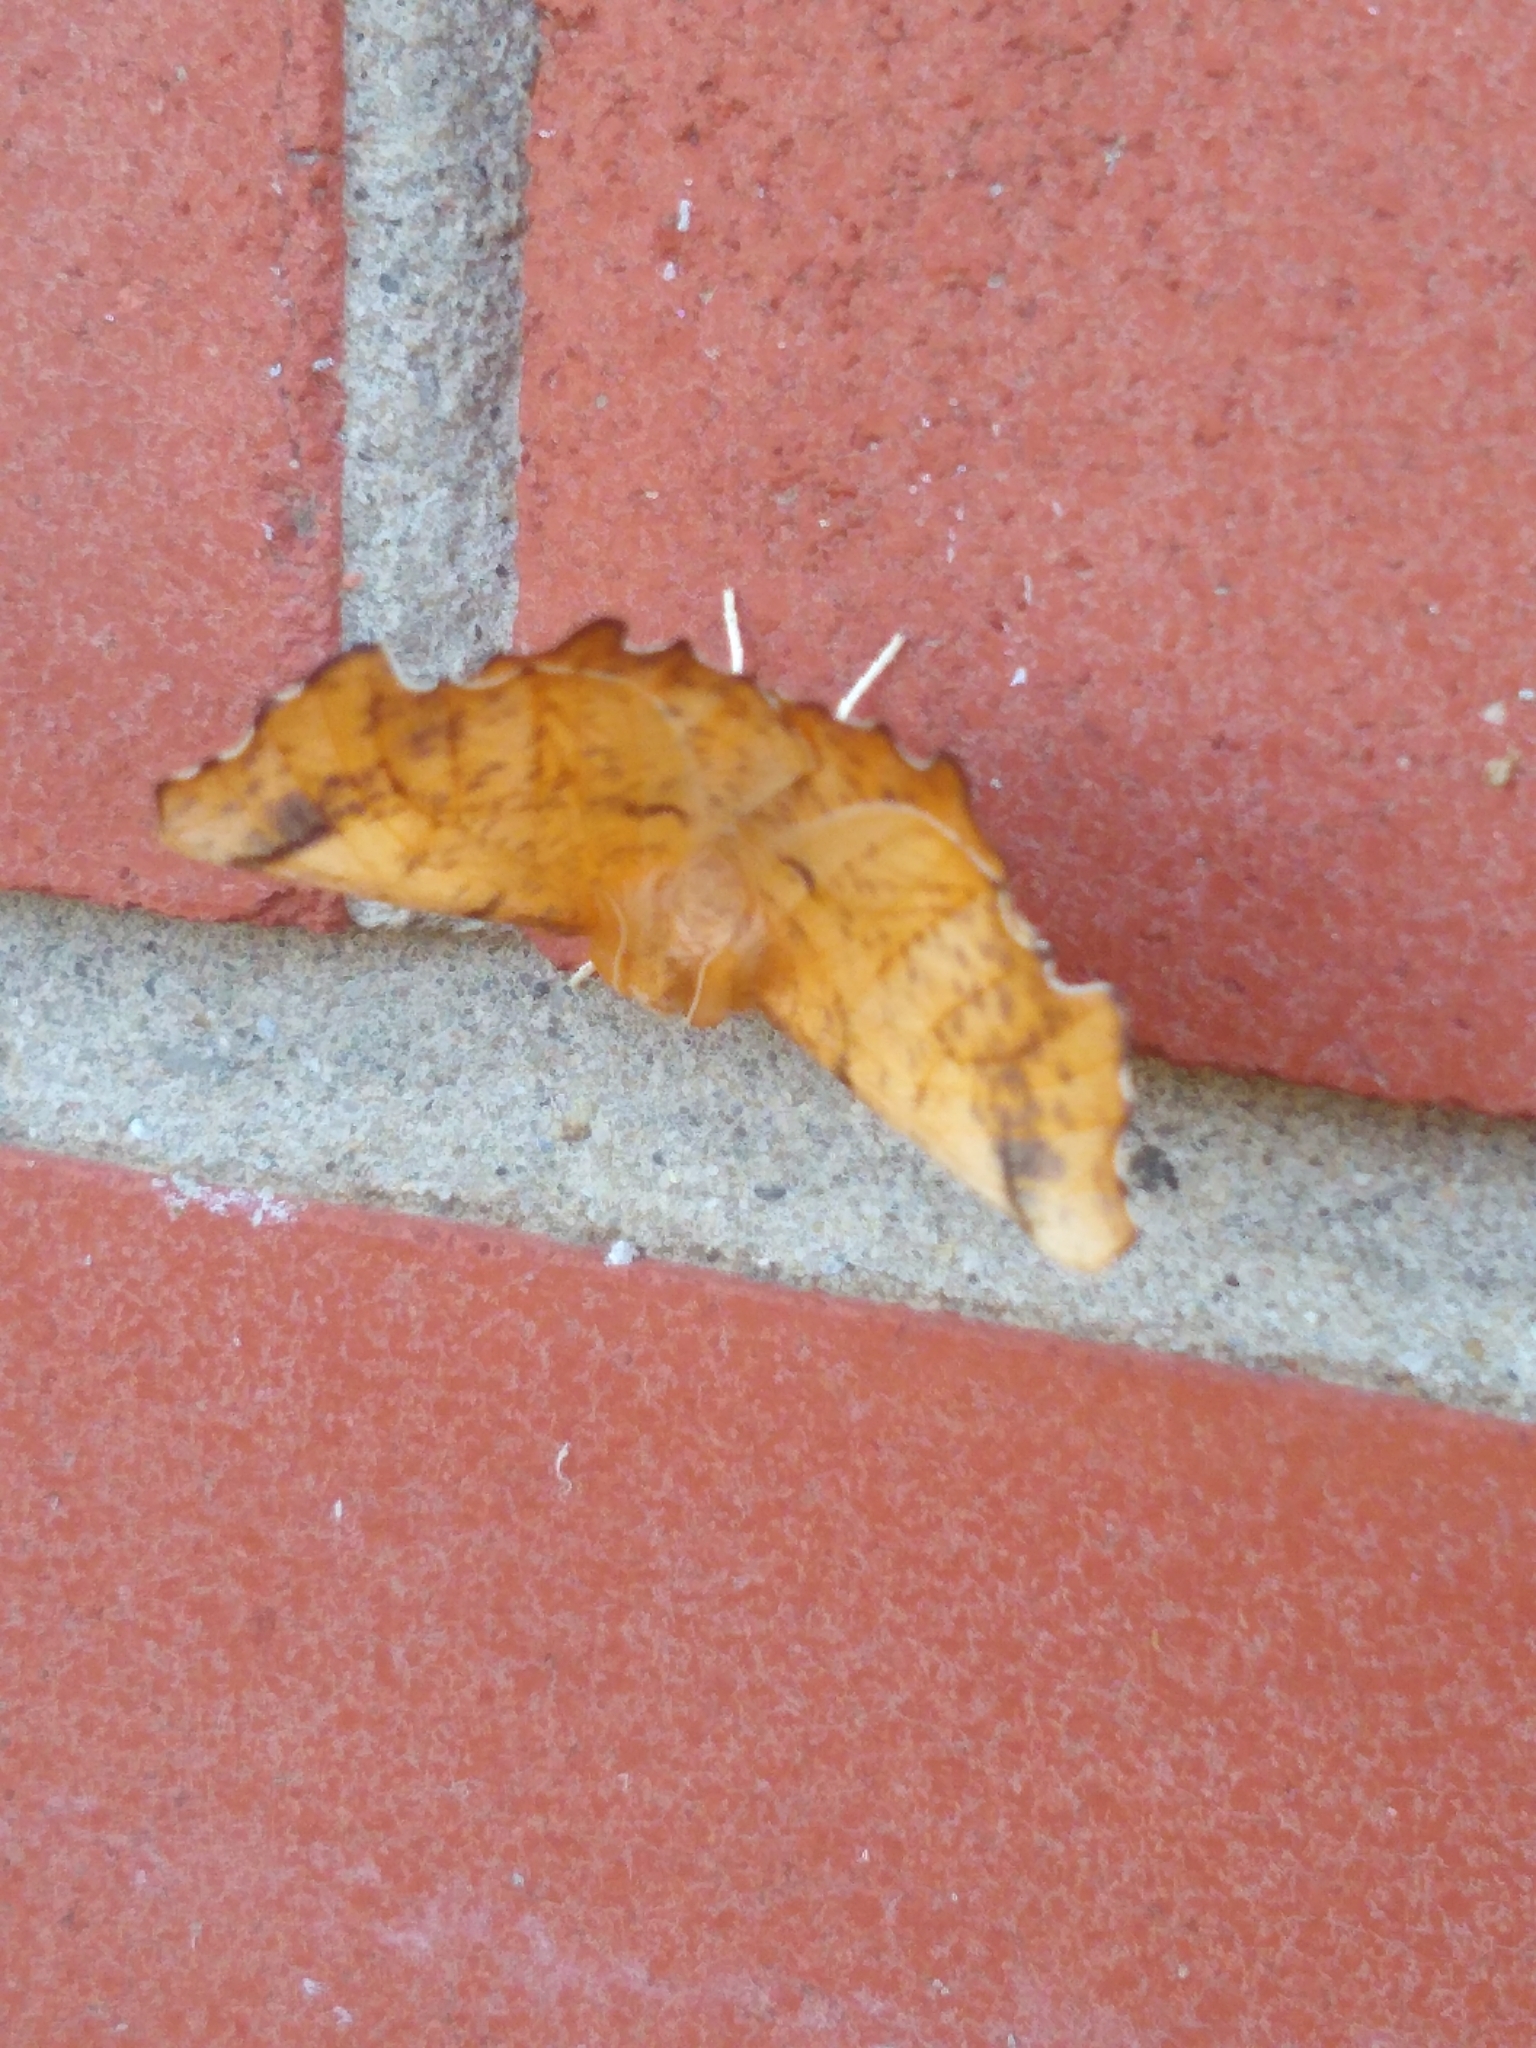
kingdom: Animalia
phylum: Arthropoda
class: Insecta
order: Lepidoptera
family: Geometridae
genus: Ennomos
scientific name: Ennomos magnaria
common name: Maple spanworm
